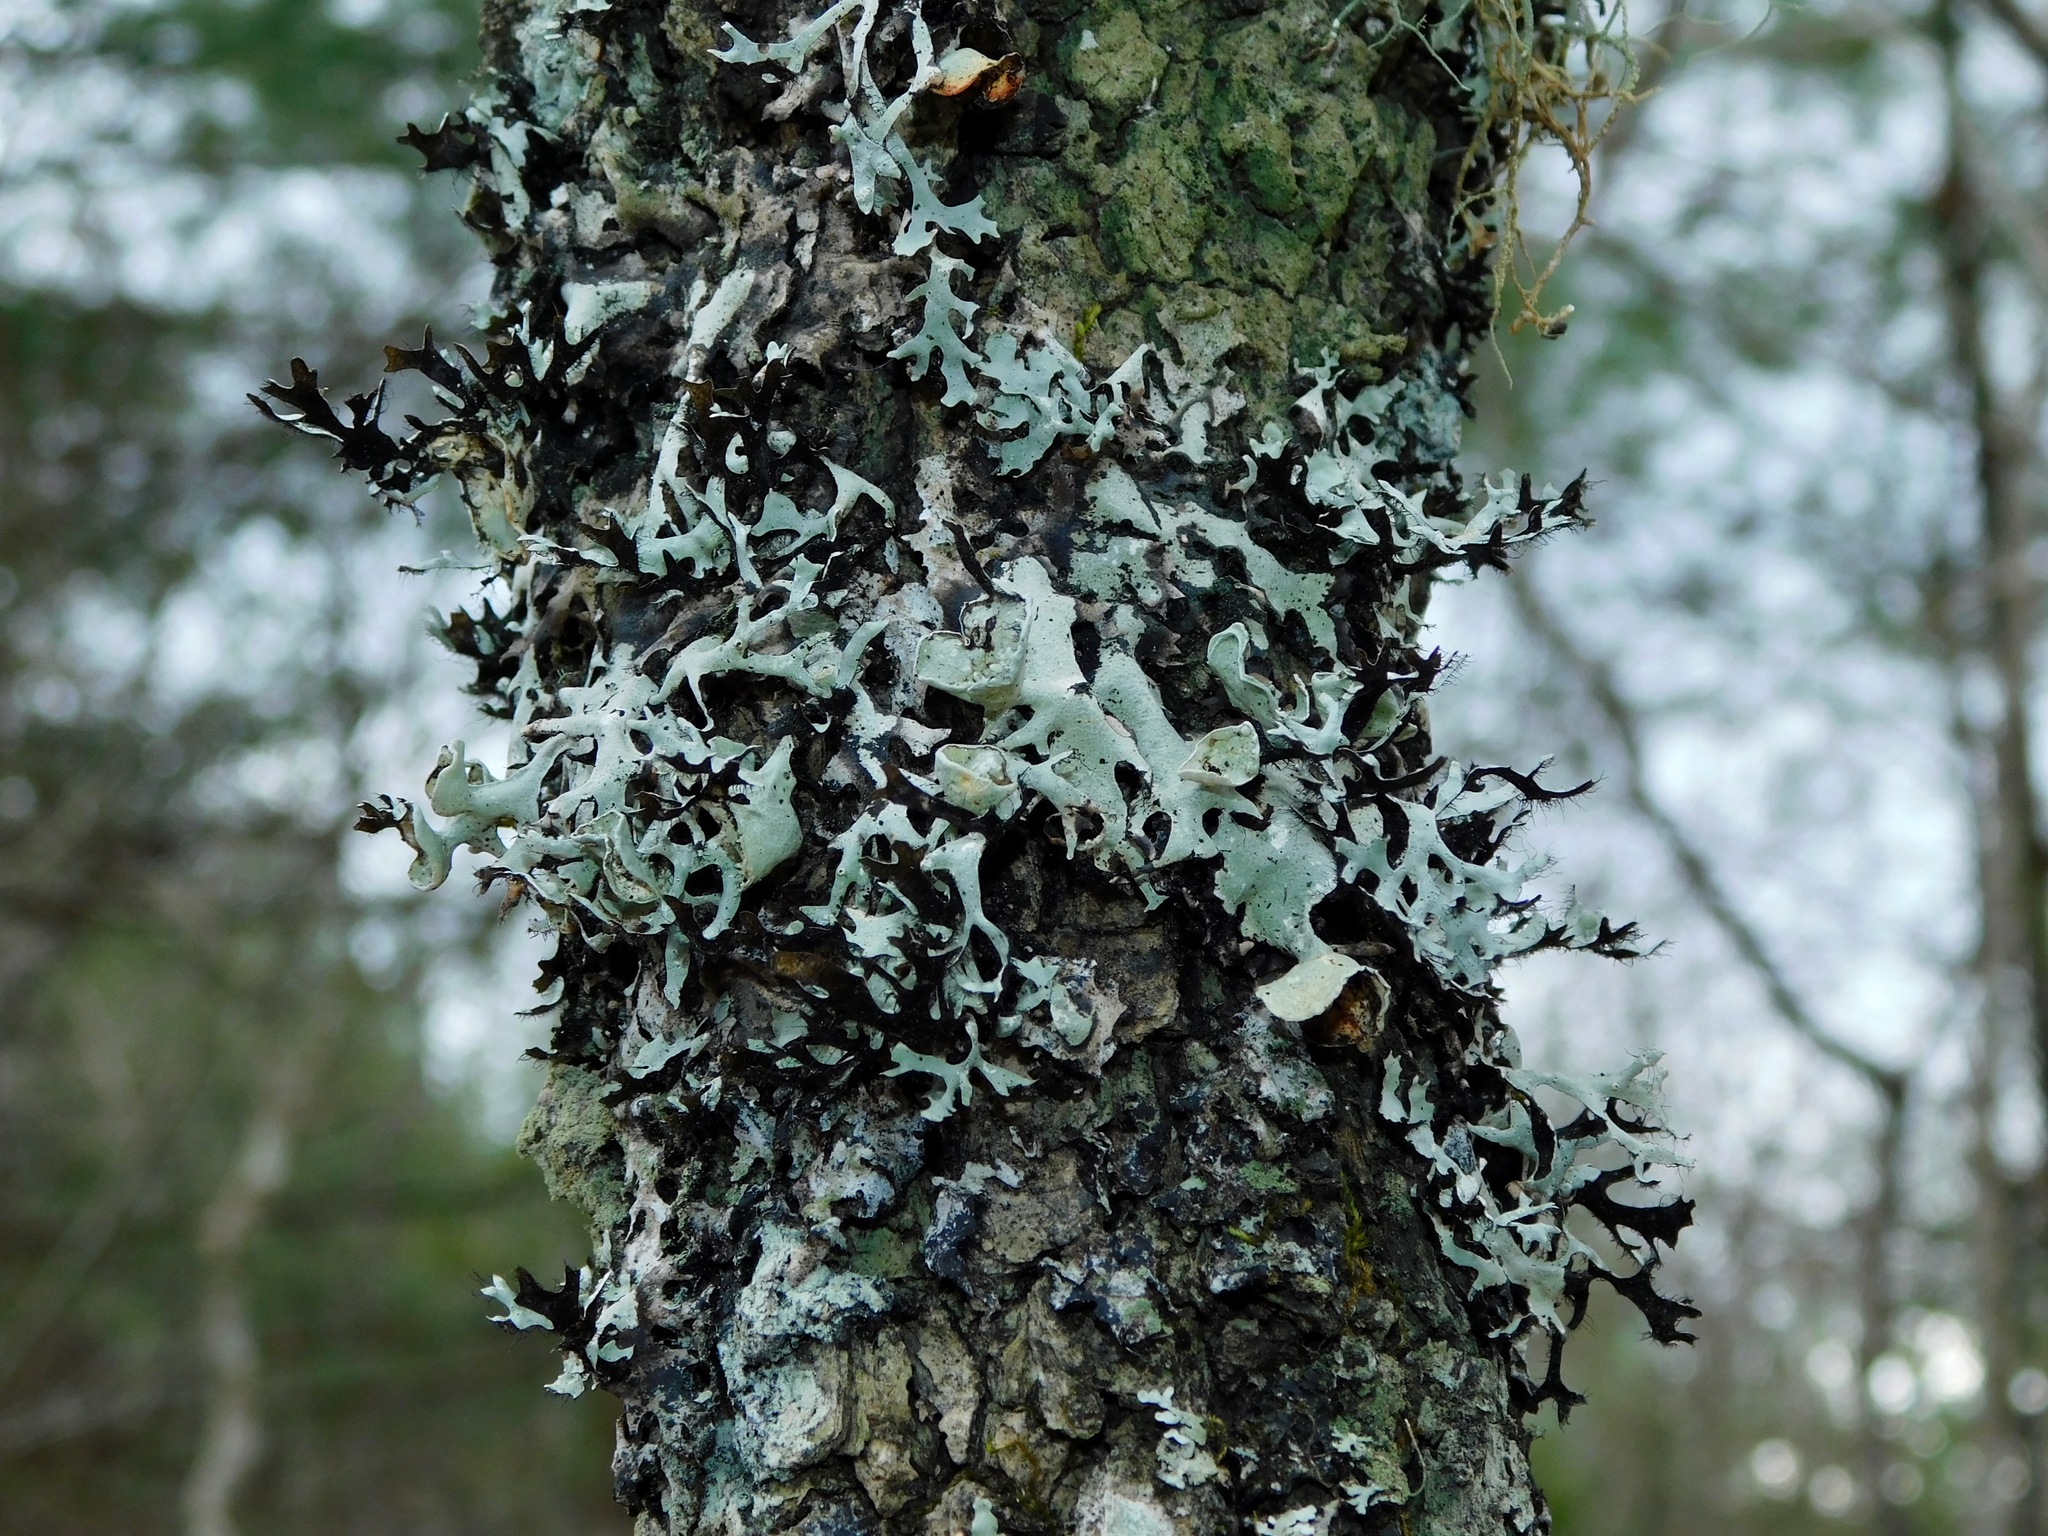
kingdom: Fungi
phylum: Ascomycota
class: Lecanoromycetes
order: Lecanorales
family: Parmeliaceae
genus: Parmotrema
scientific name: Parmotrema cetratum
